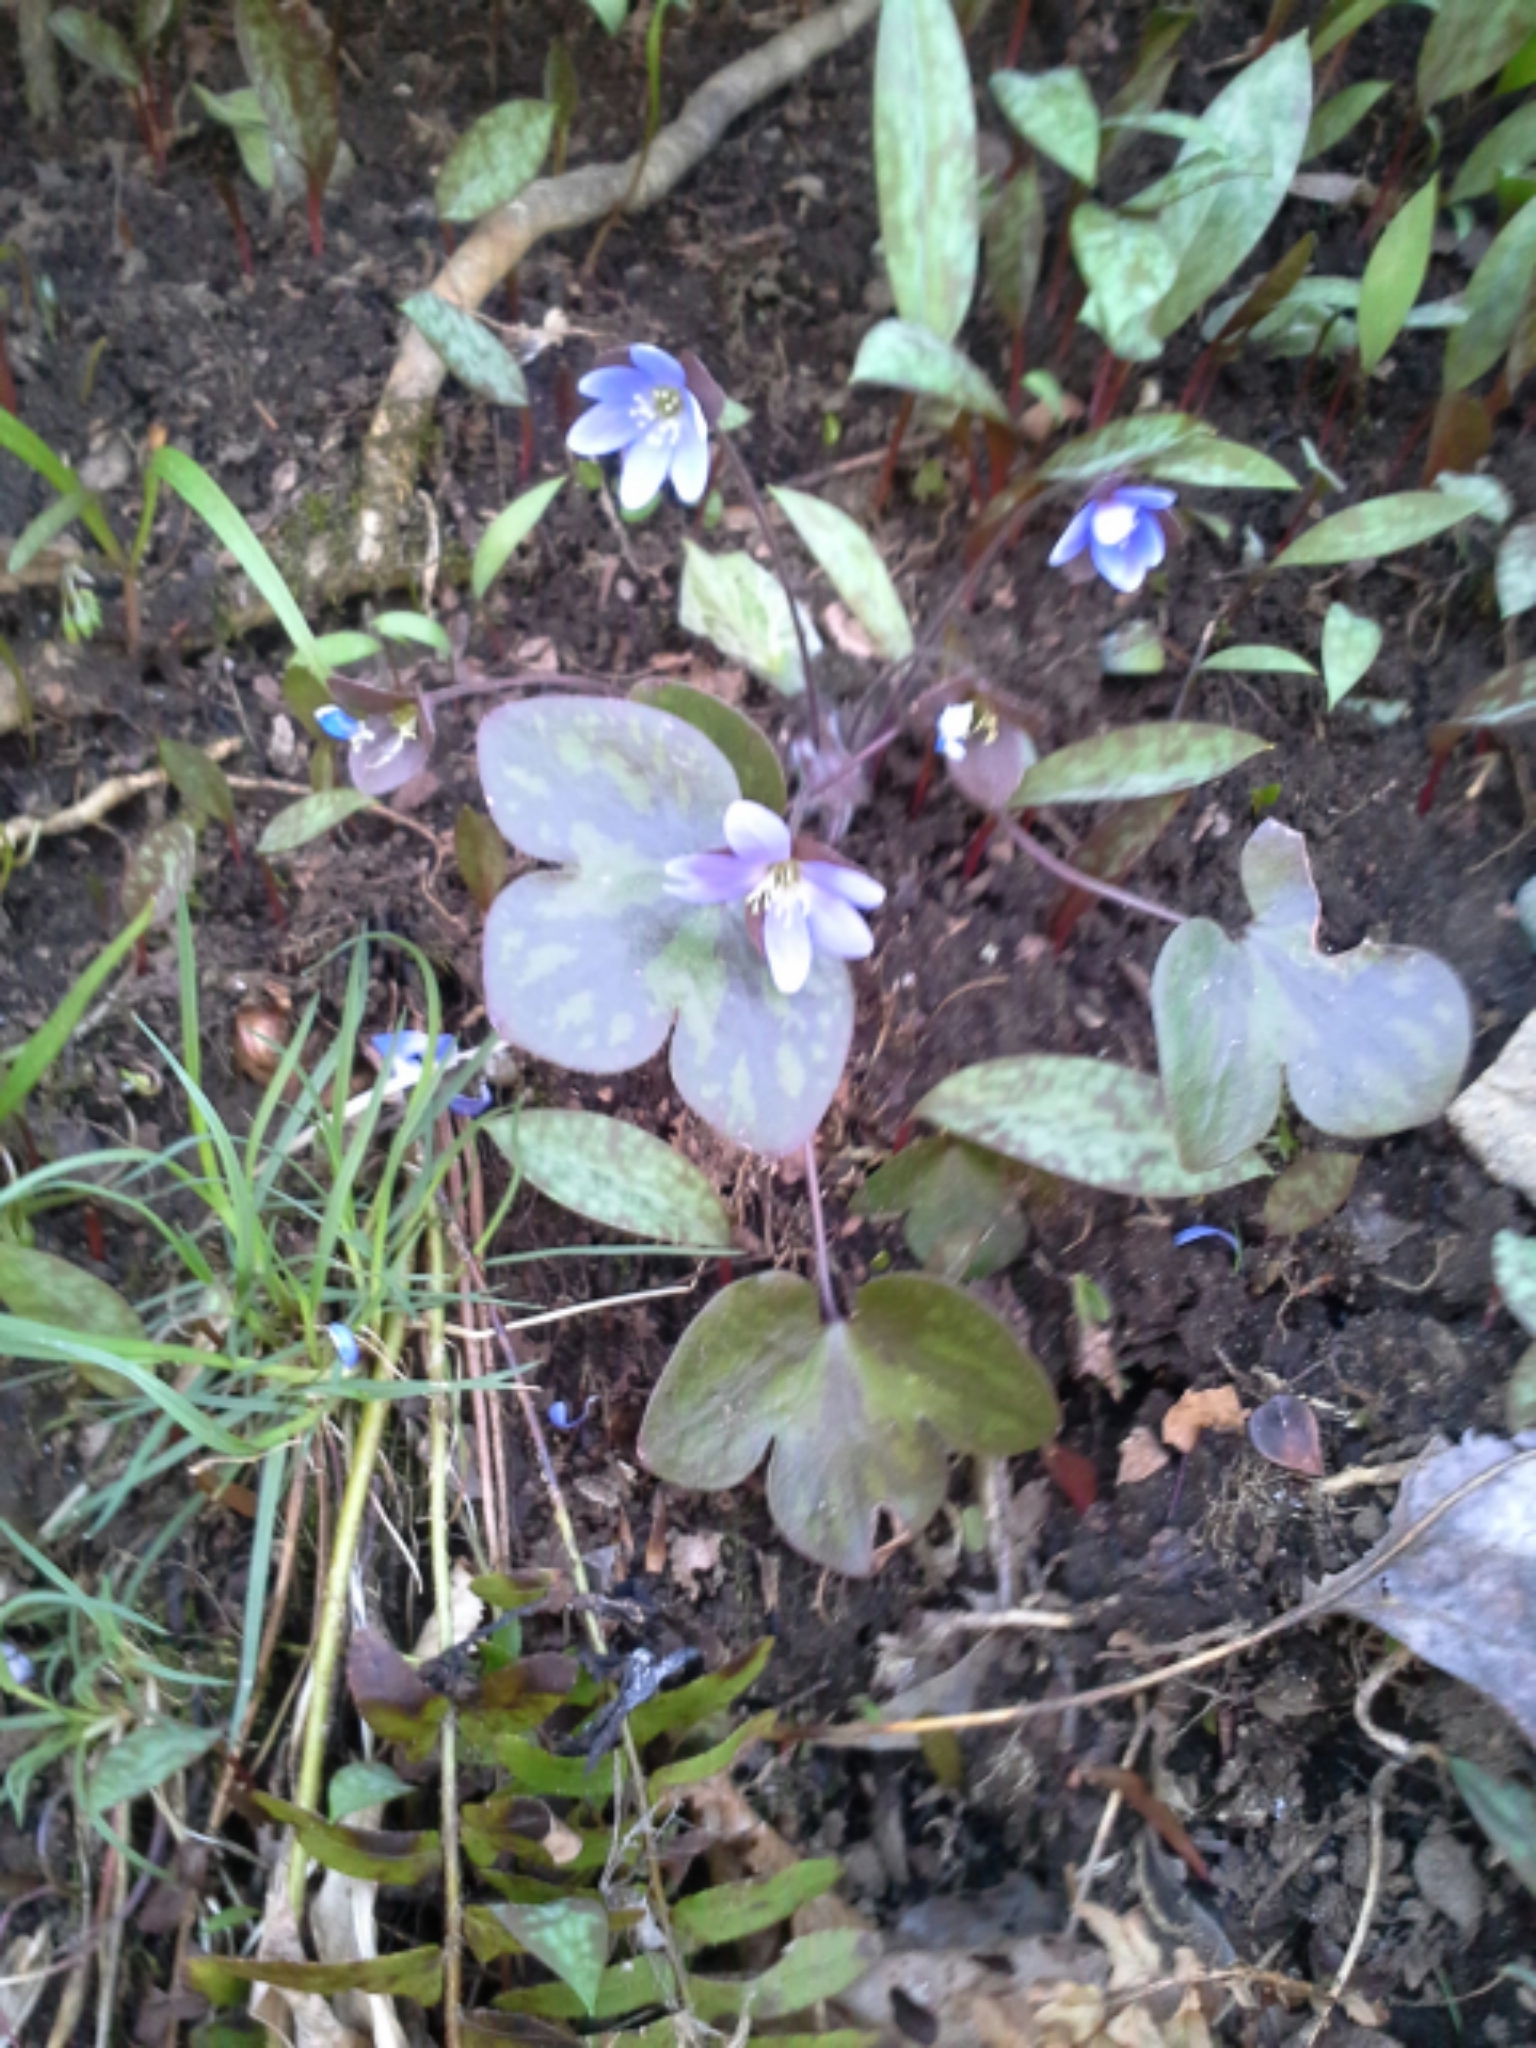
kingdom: Plantae
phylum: Tracheophyta
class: Magnoliopsida
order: Ranunculales
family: Ranunculaceae
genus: Hepatica
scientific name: Hepatica americana
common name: American hepatica
